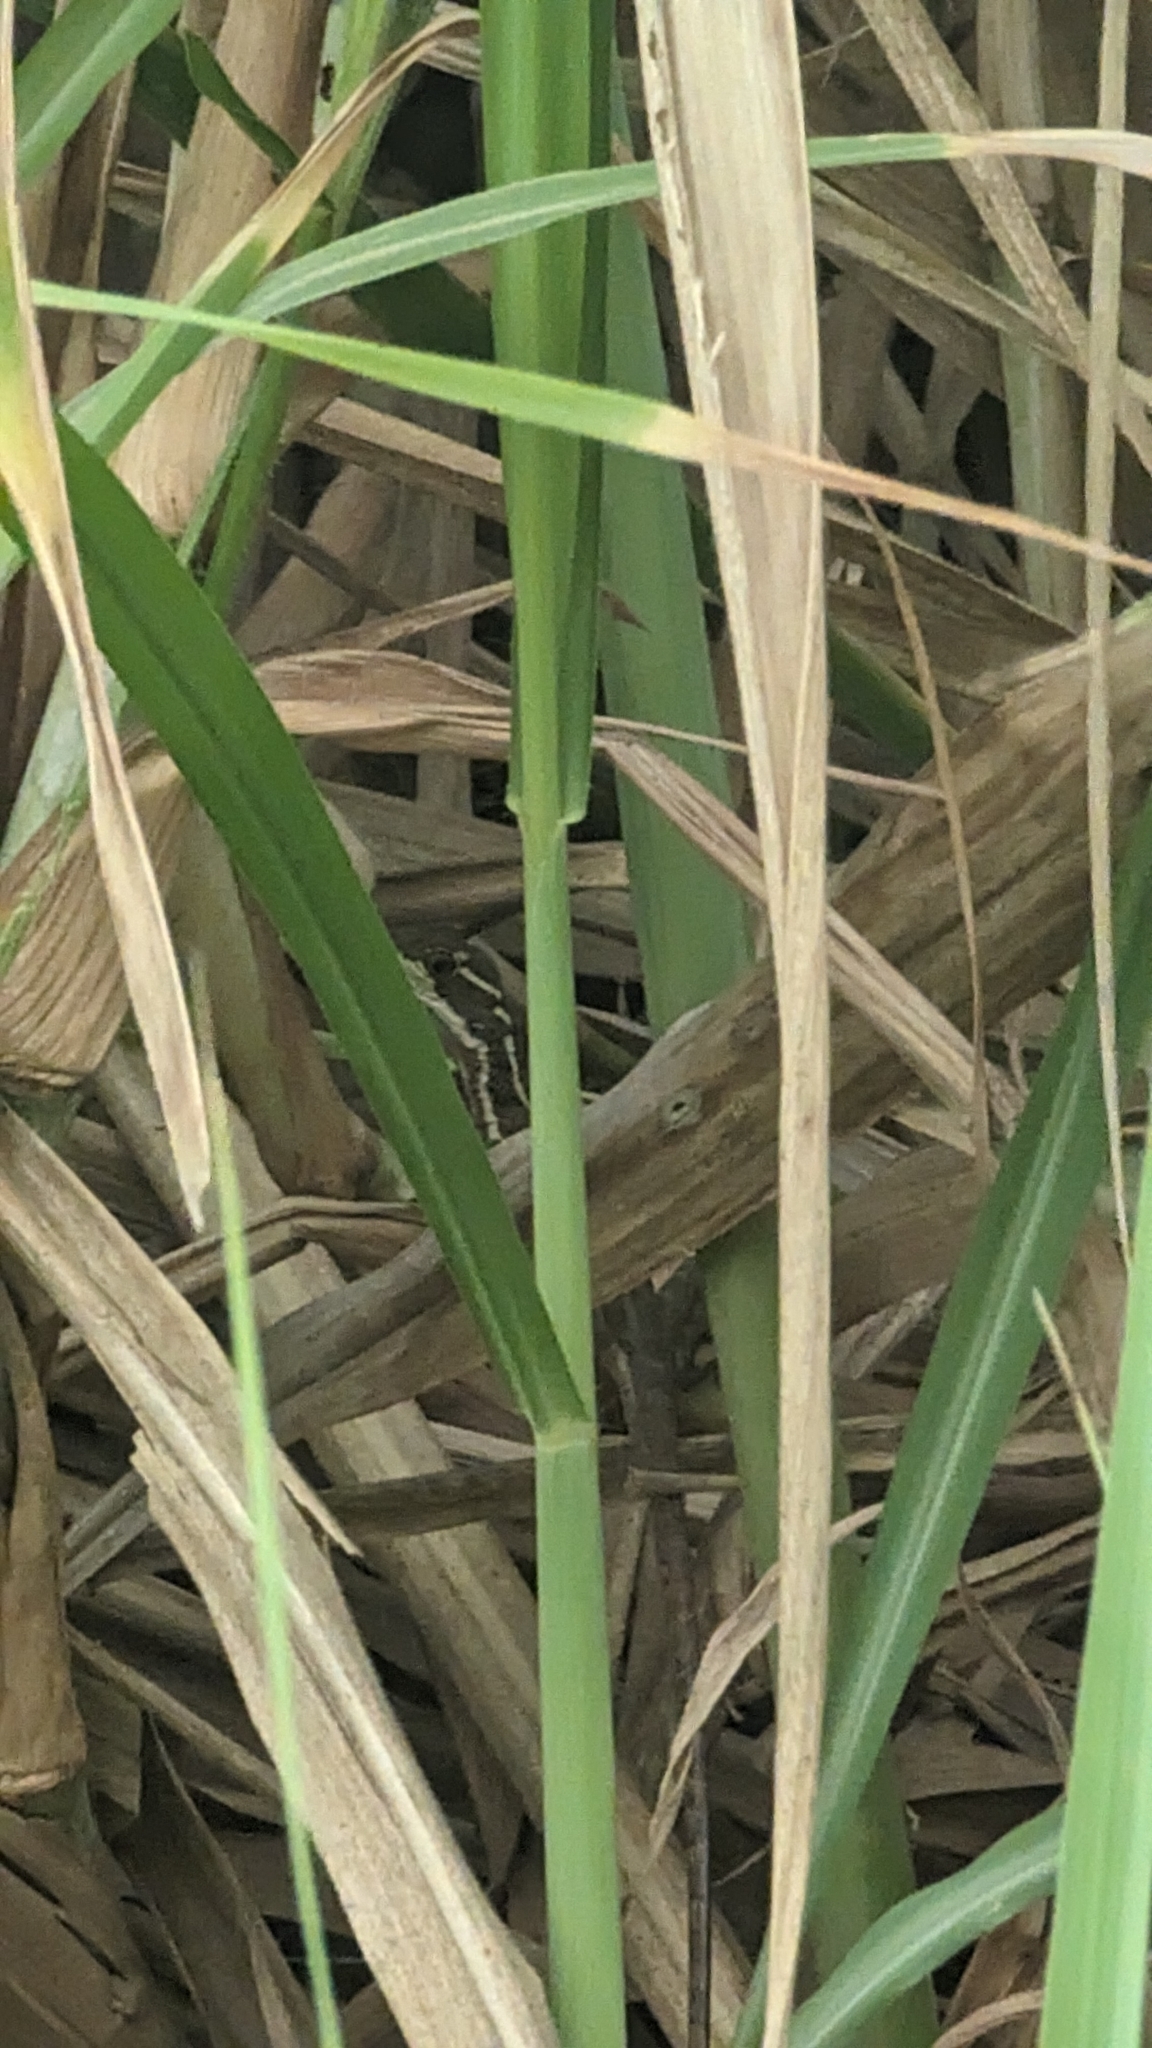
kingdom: Animalia
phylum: Chordata
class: Squamata
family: Corytophanidae
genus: Basiliscus
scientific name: Basiliscus basiliscus
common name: Common basilisk
